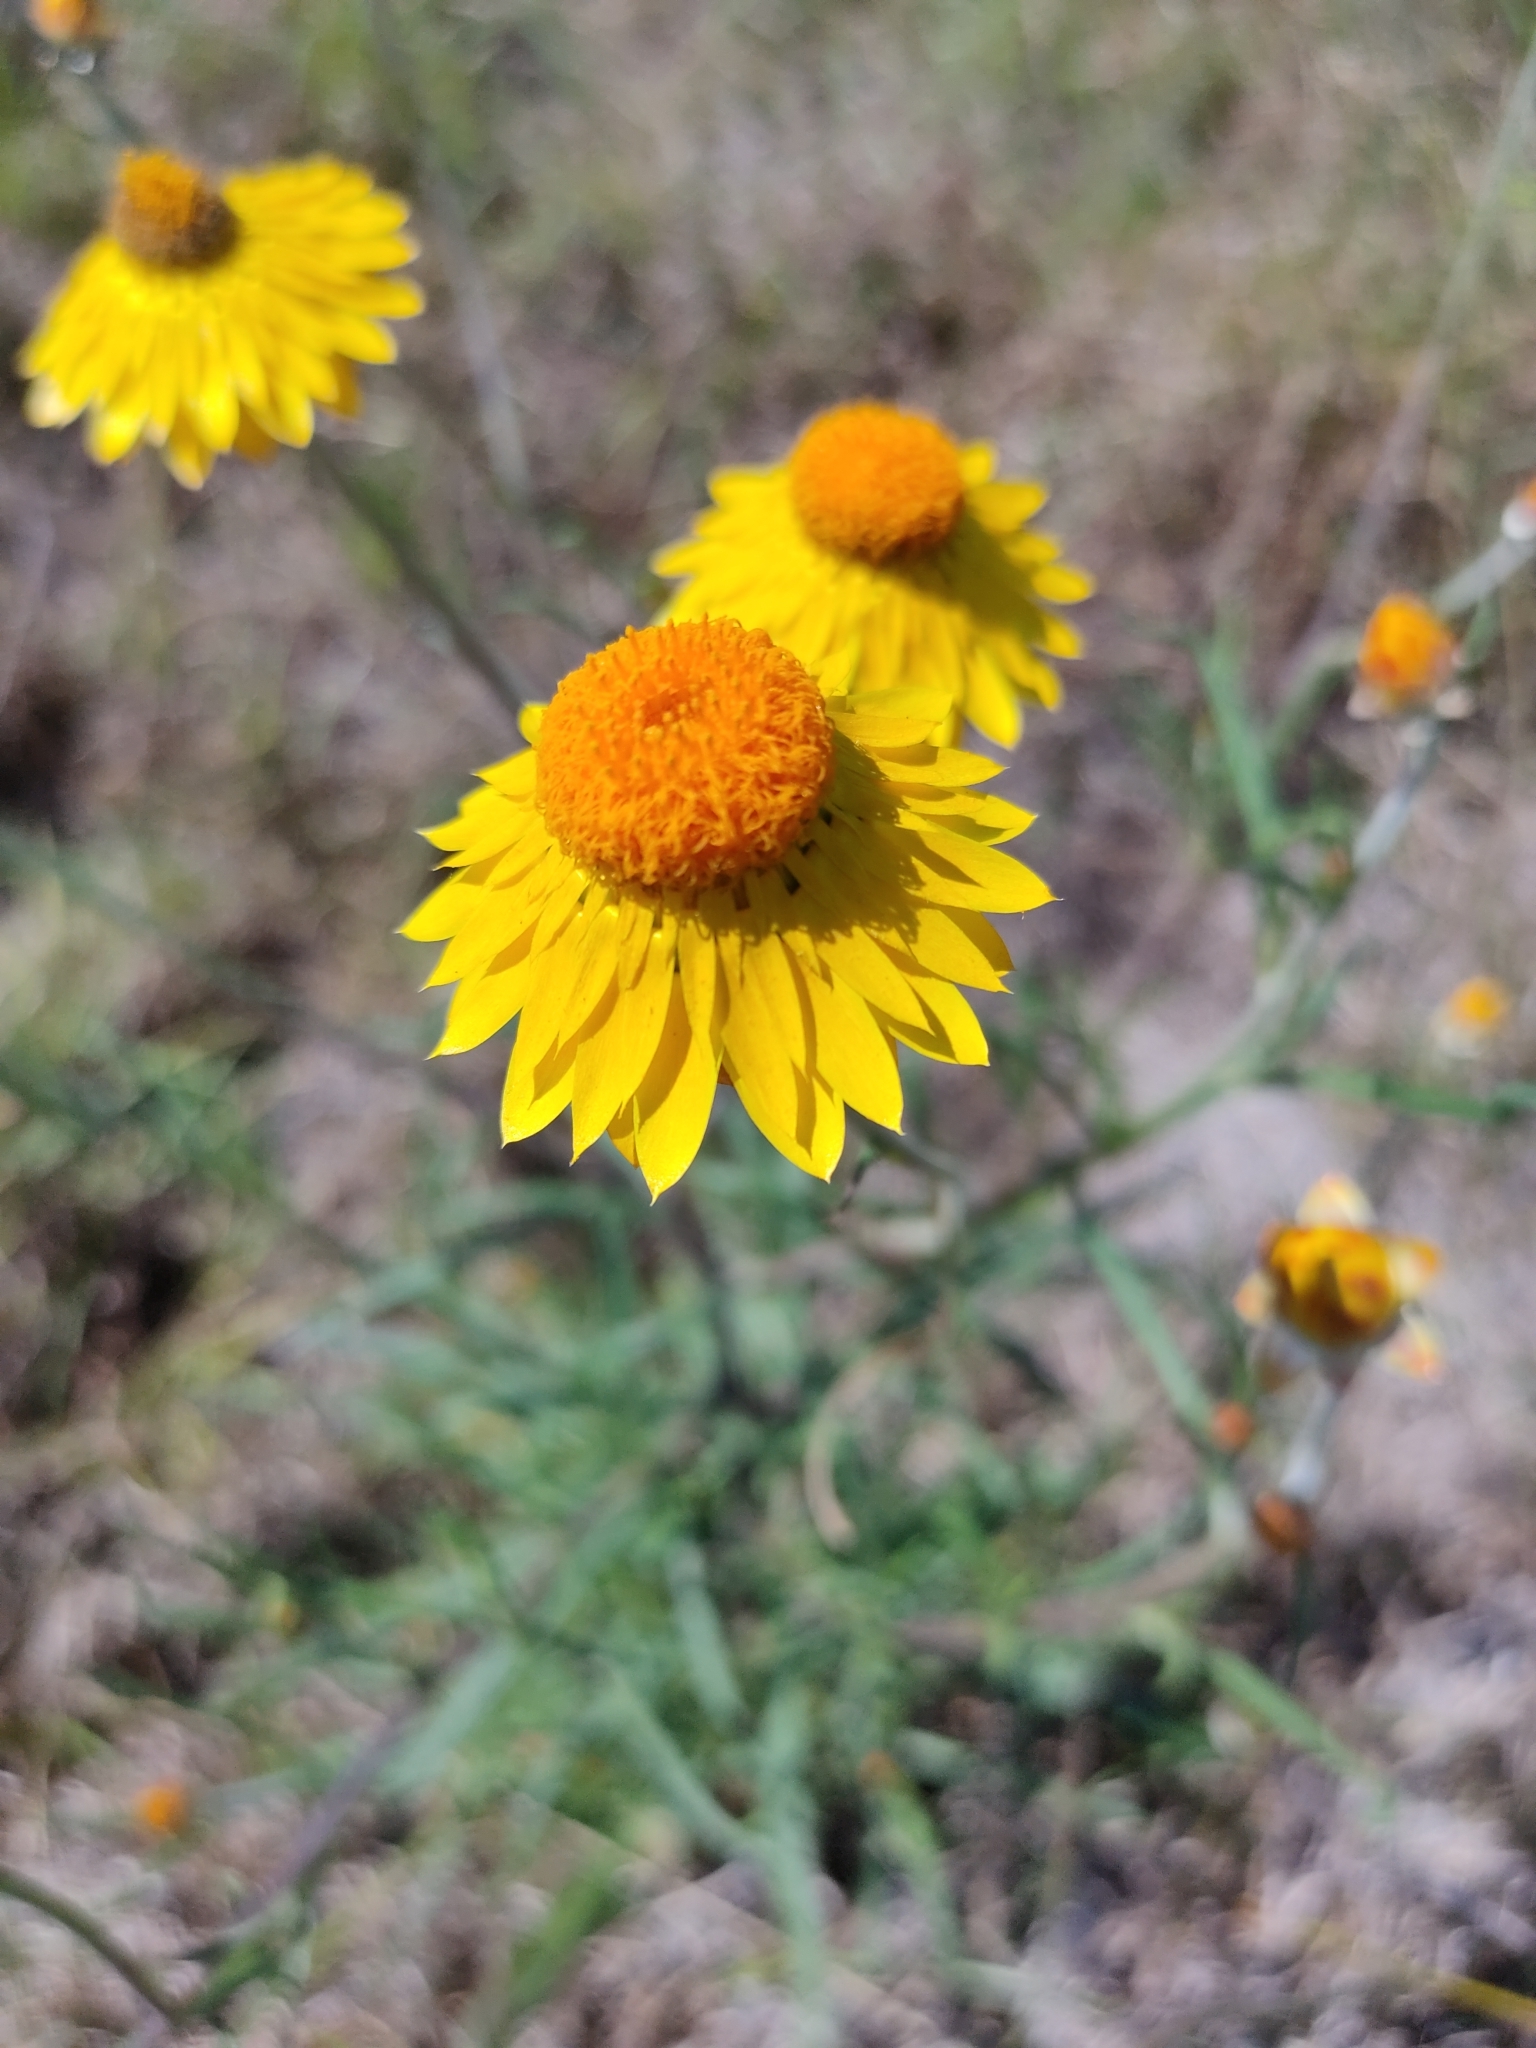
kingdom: Plantae
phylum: Tracheophyta
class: Magnoliopsida
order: Asterales
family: Asteraceae
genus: Xerochrysum
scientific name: Xerochrysum bracteatum
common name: Bracted strawflower
